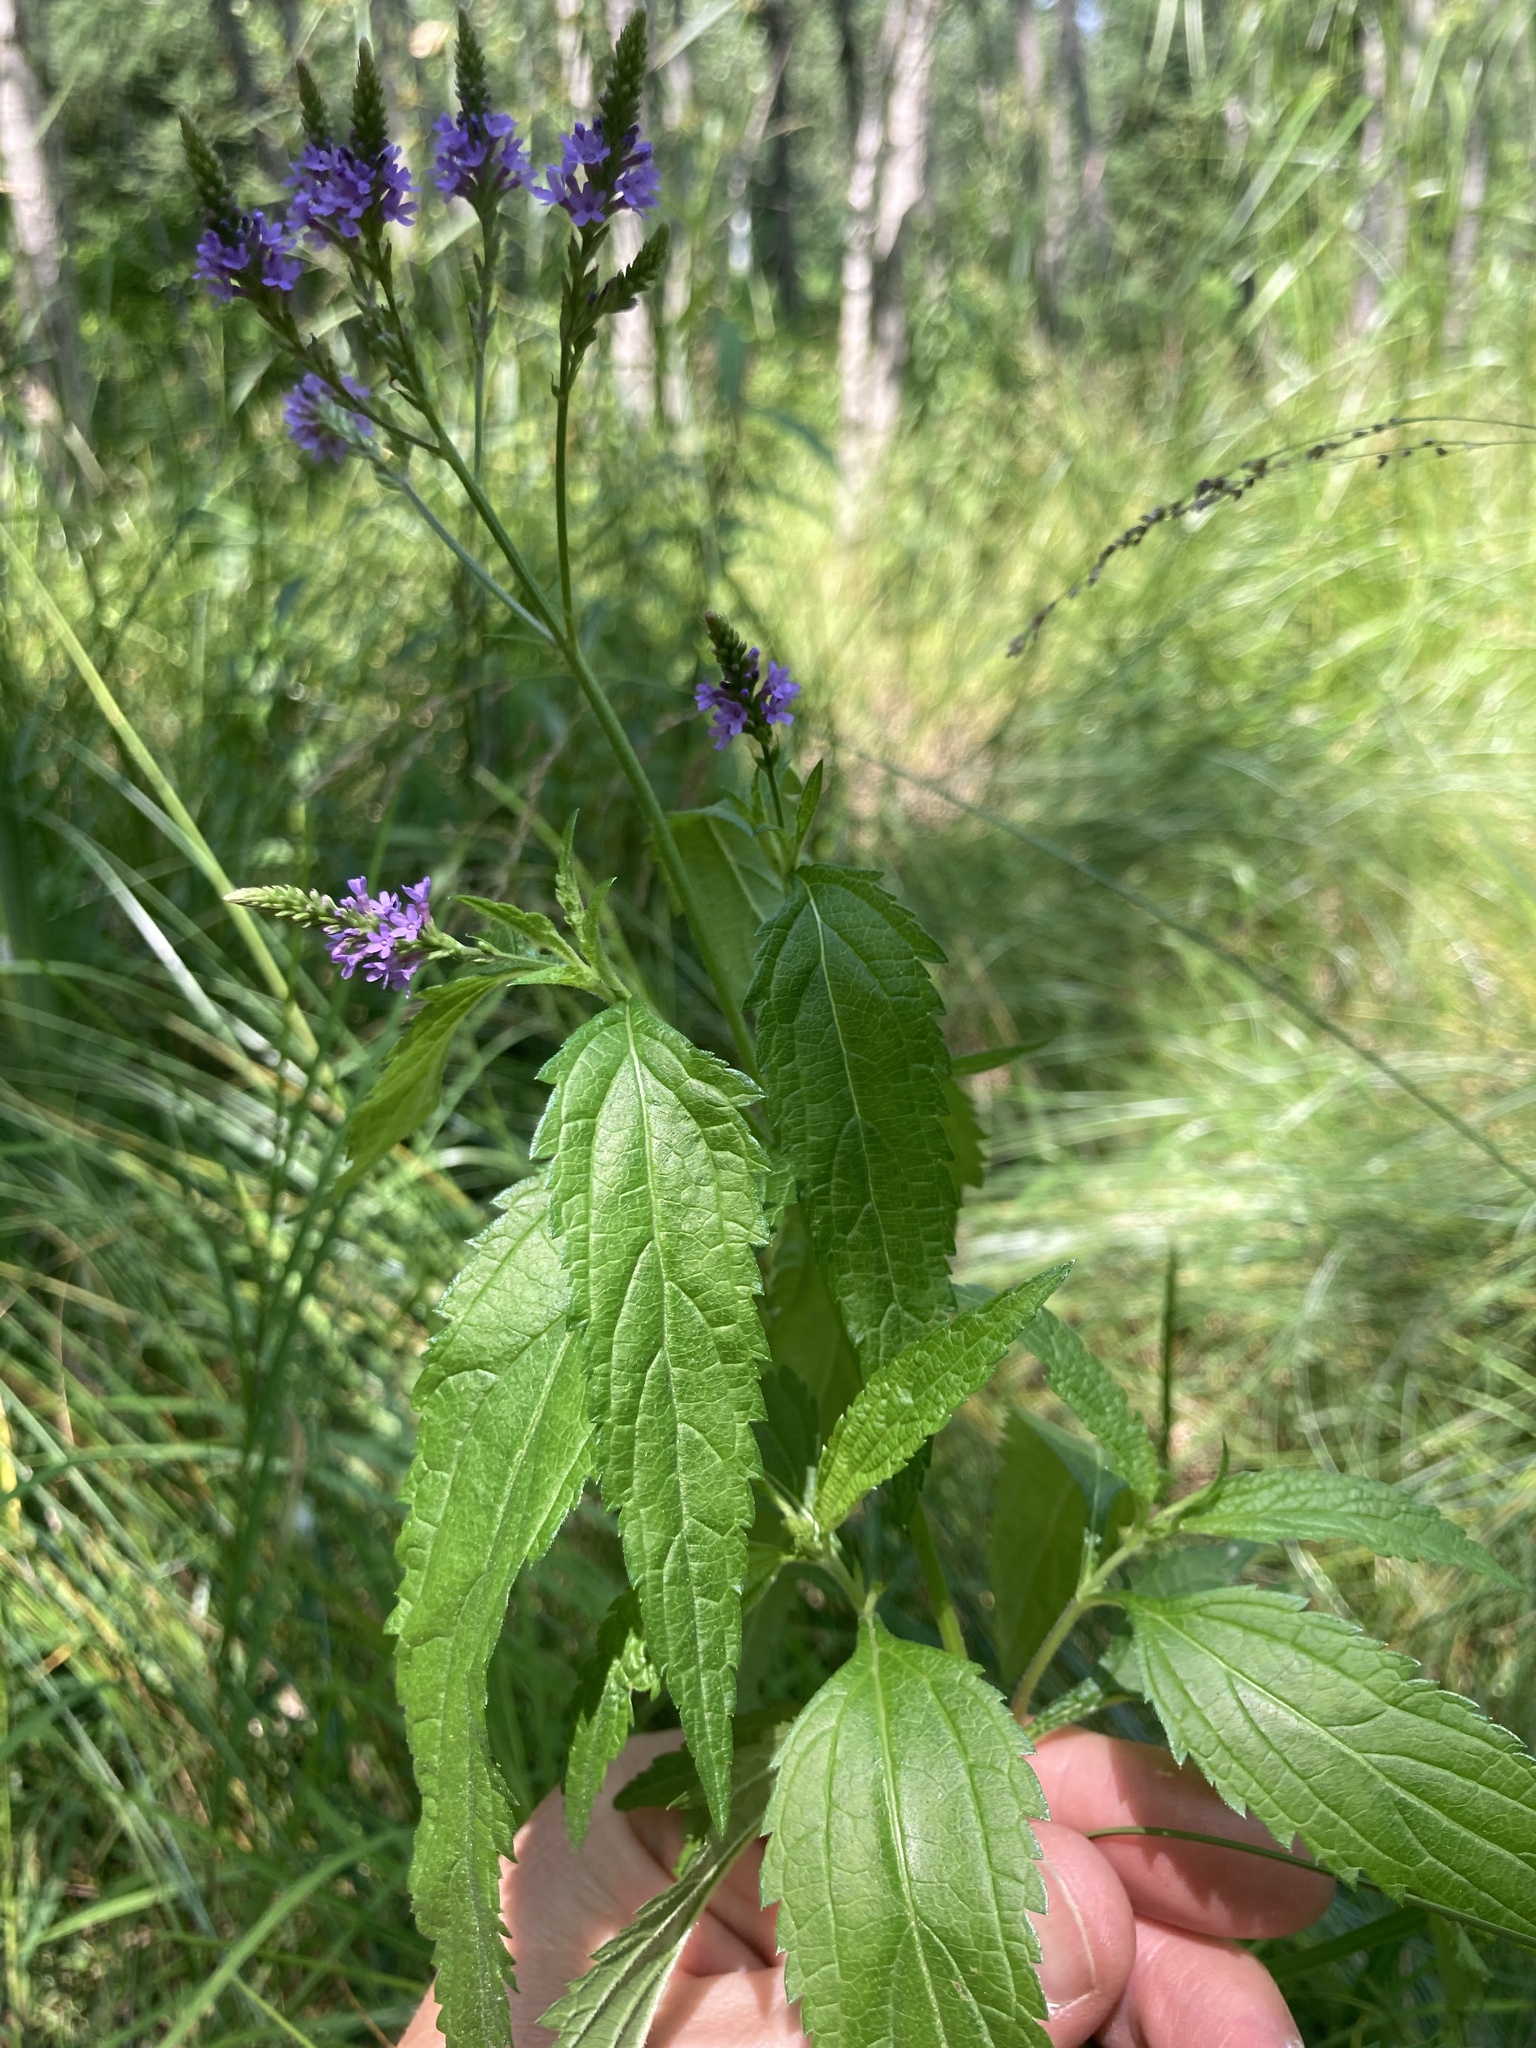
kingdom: Plantae
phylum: Tracheophyta
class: Magnoliopsida
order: Lamiales
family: Verbenaceae
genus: Verbena
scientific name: Verbena hastata
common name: American blue vervain
